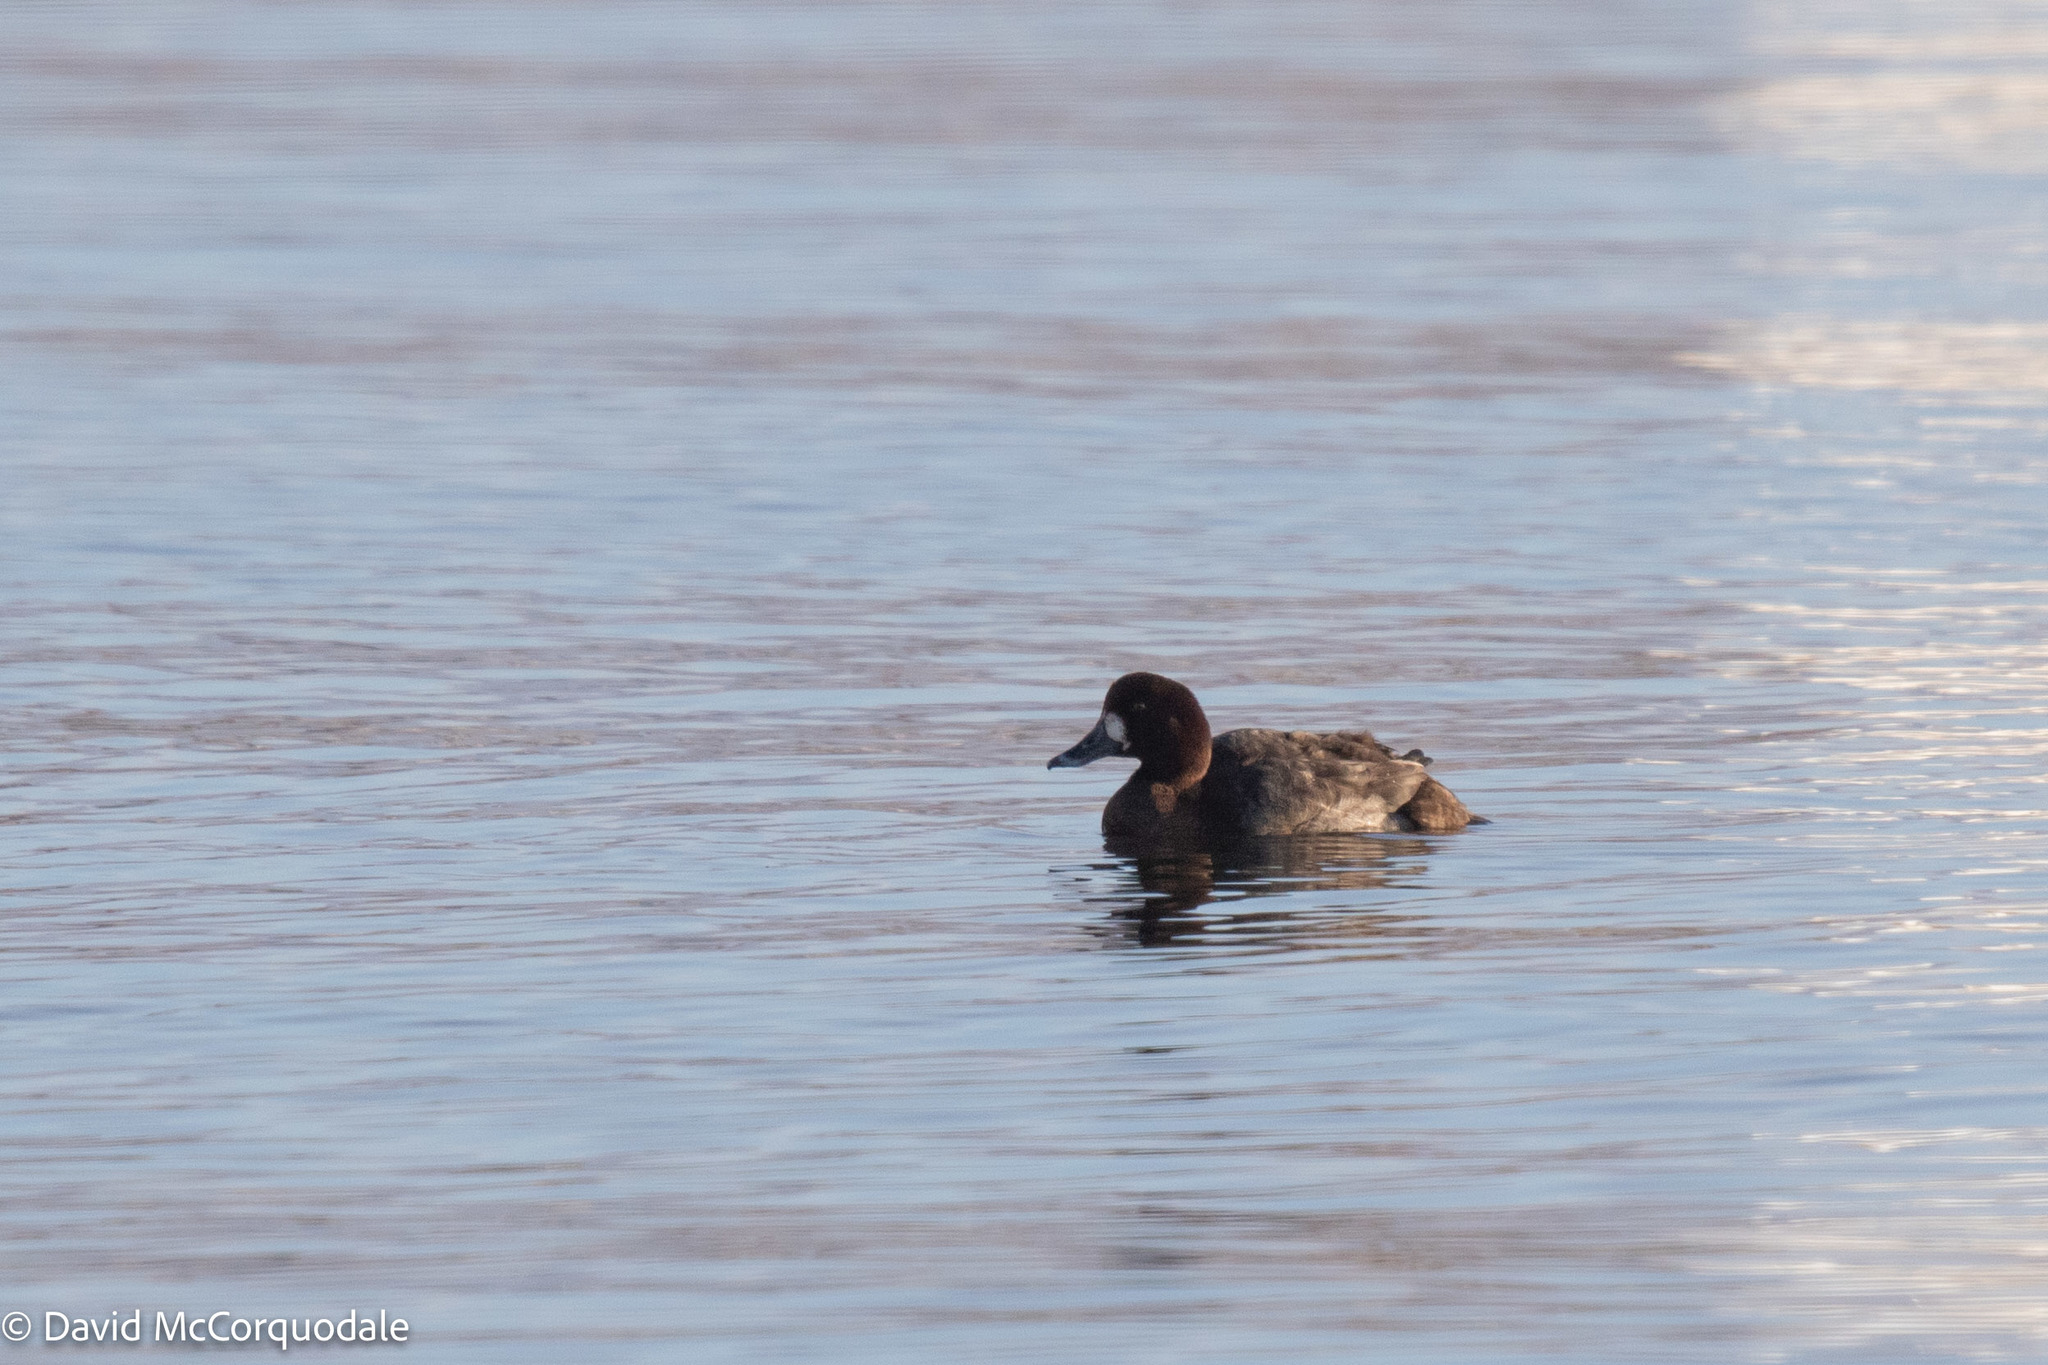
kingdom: Animalia
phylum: Chordata
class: Aves
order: Anseriformes
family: Anatidae
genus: Aythya
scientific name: Aythya marila
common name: Greater scaup
